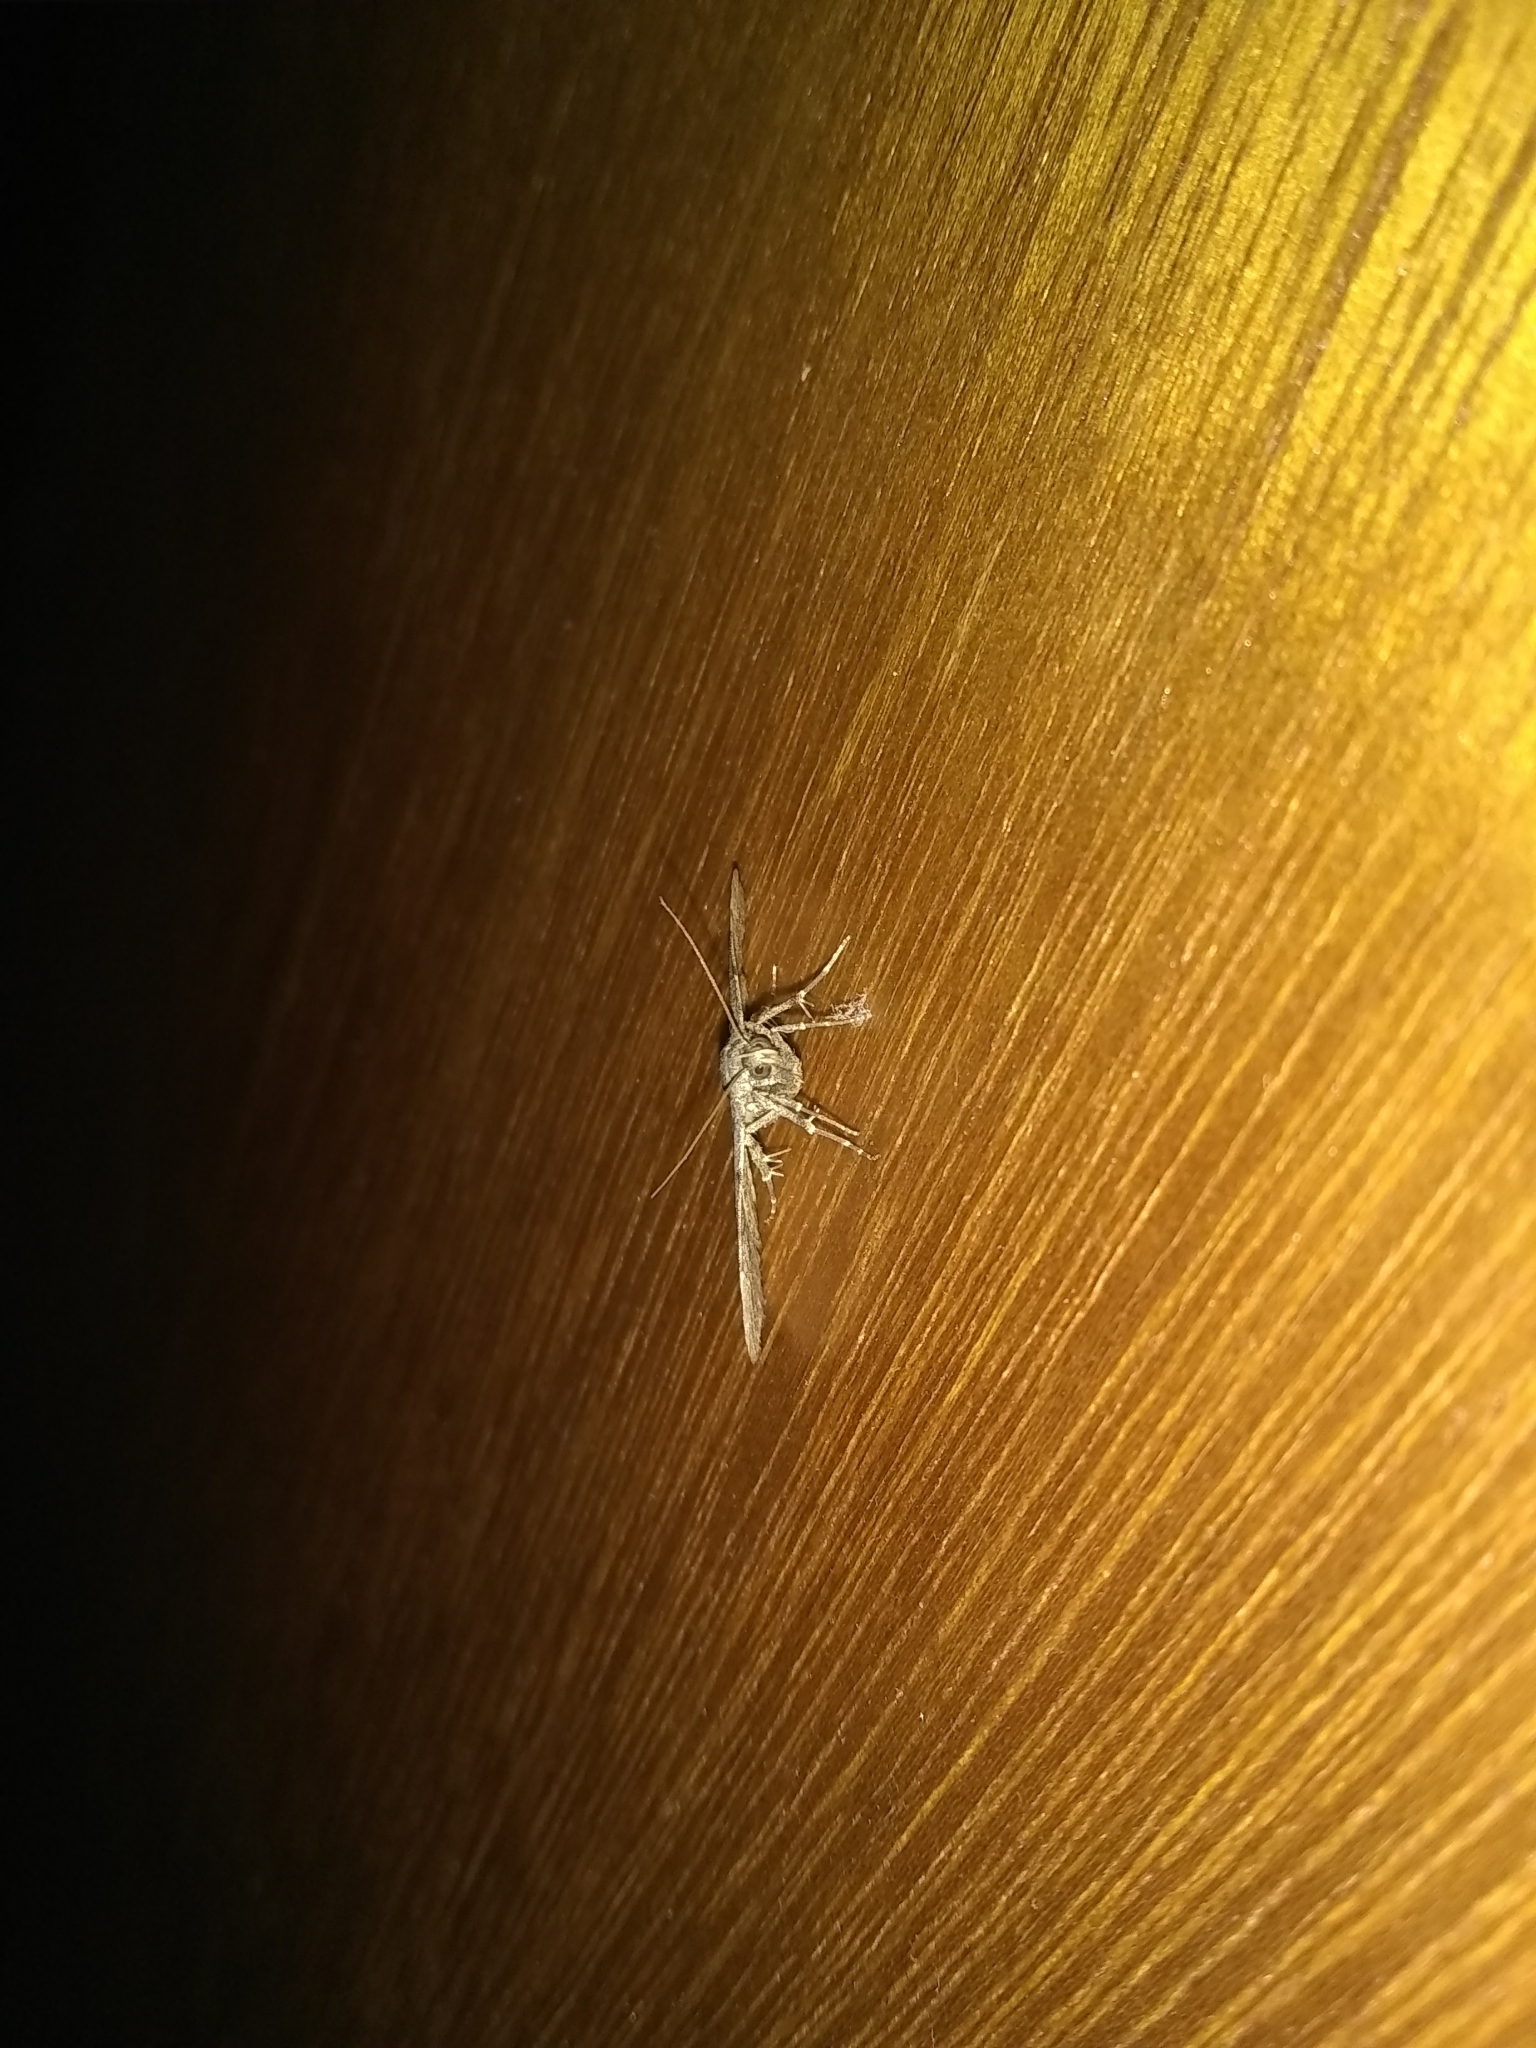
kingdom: Animalia
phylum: Arthropoda
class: Insecta
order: Lepidoptera
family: Erebidae
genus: Idia
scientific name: Idia aemula
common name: Common idia moth
